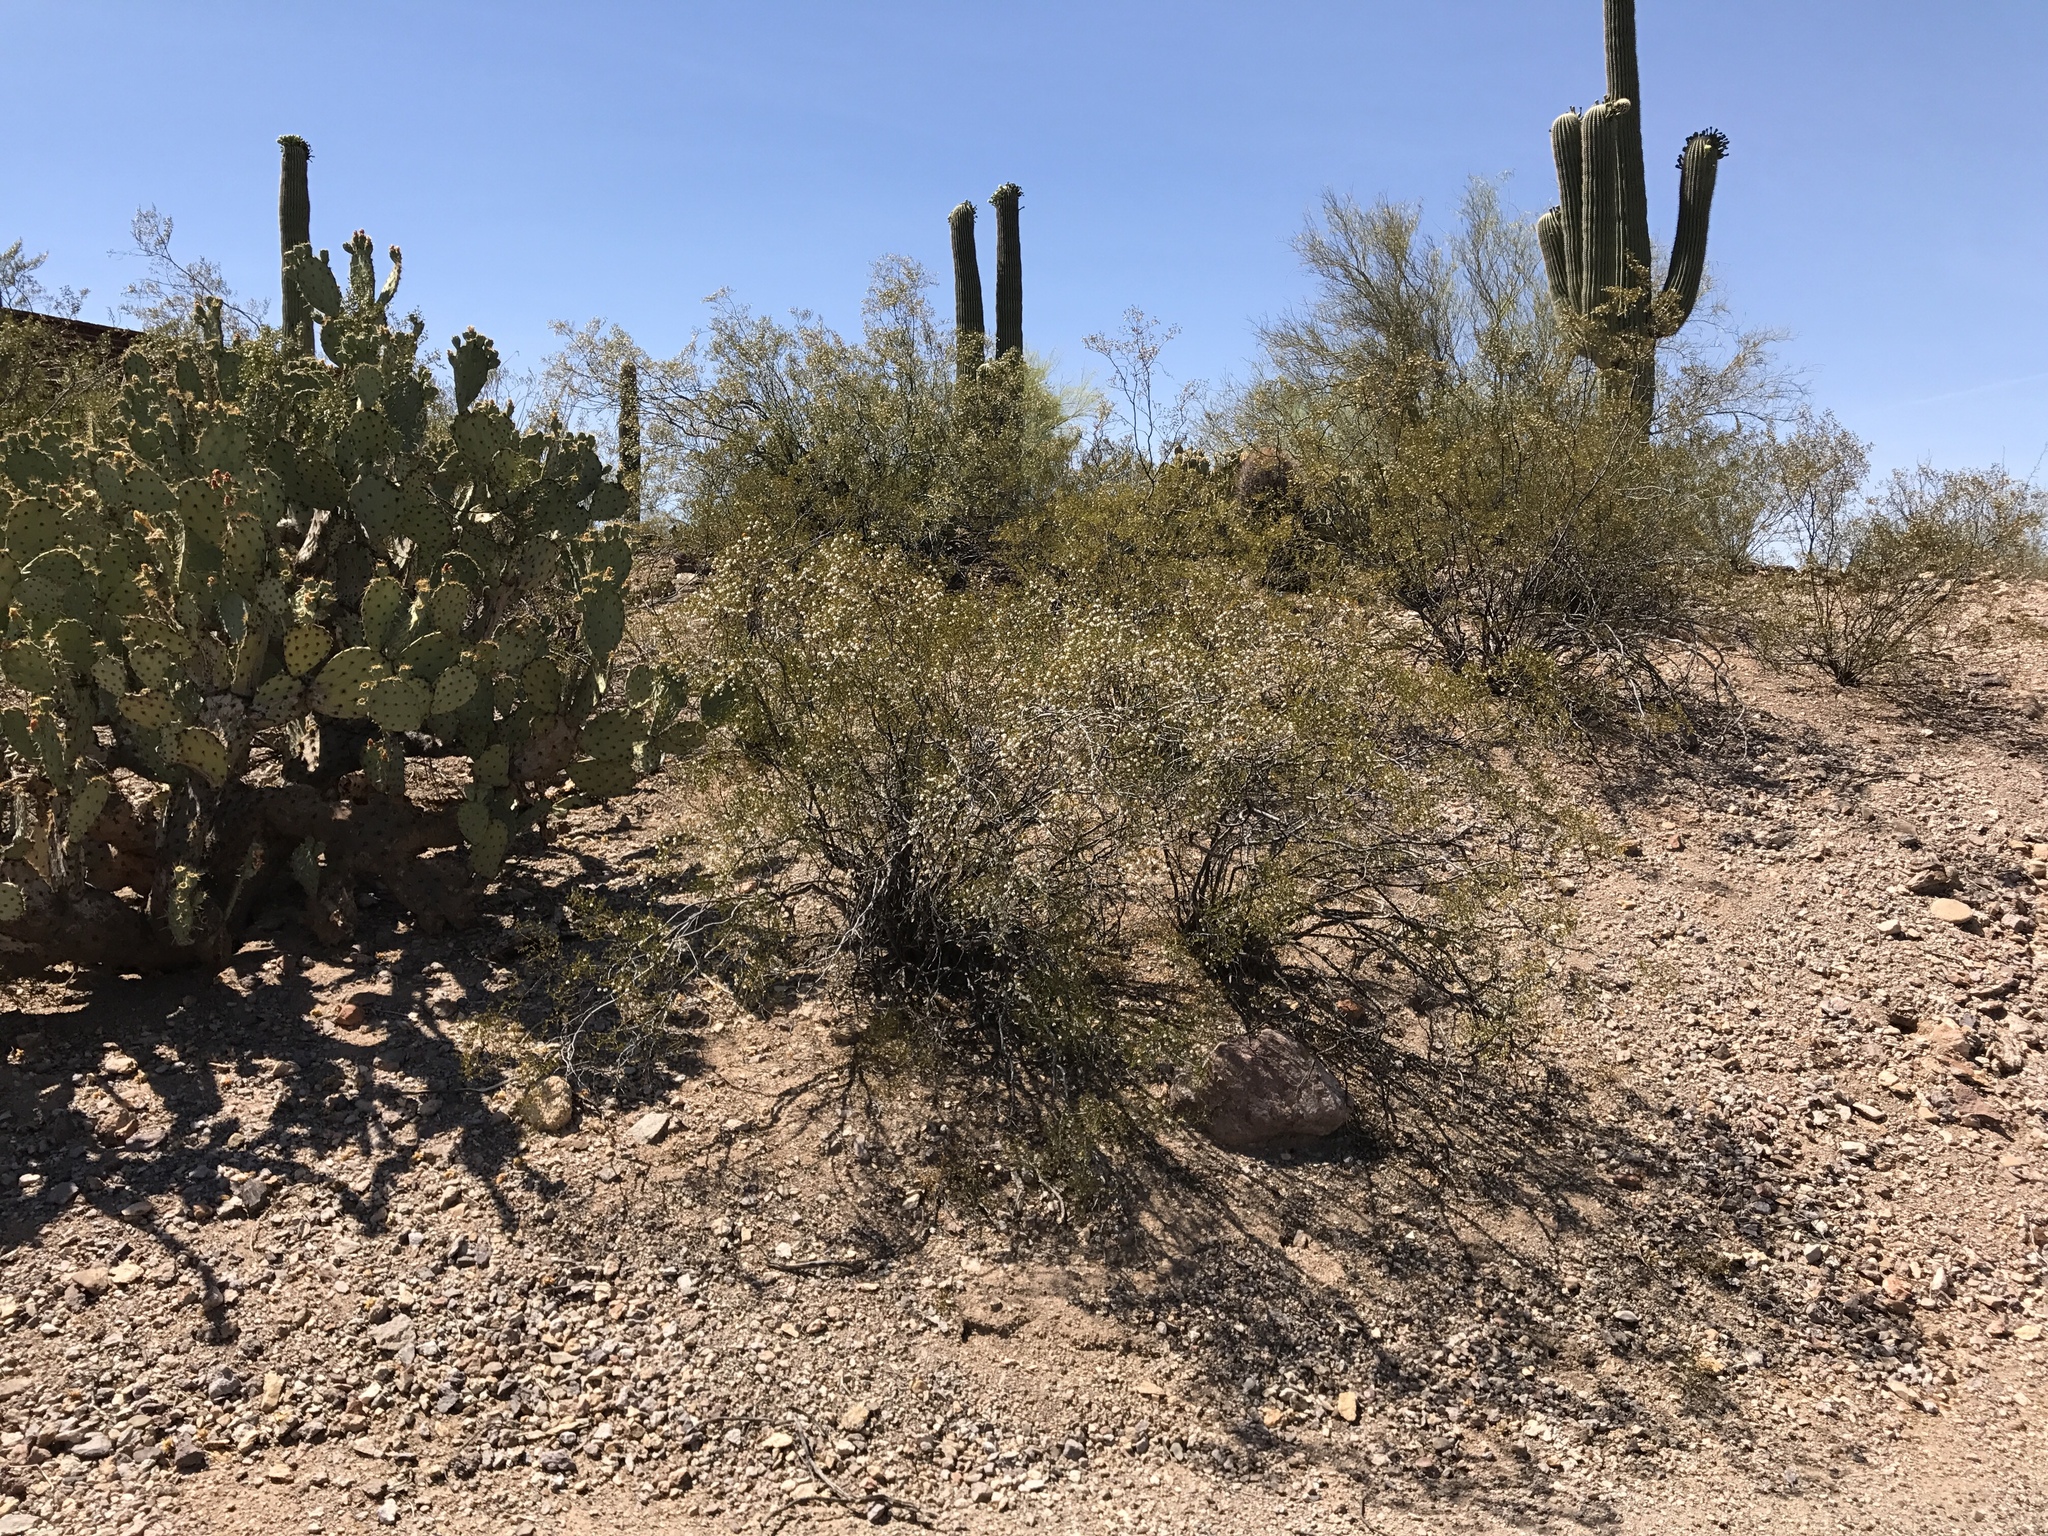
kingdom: Plantae
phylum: Tracheophyta
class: Magnoliopsida
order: Zygophyllales
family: Zygophyllaceae
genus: Larrea
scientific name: Larrea tridentata
